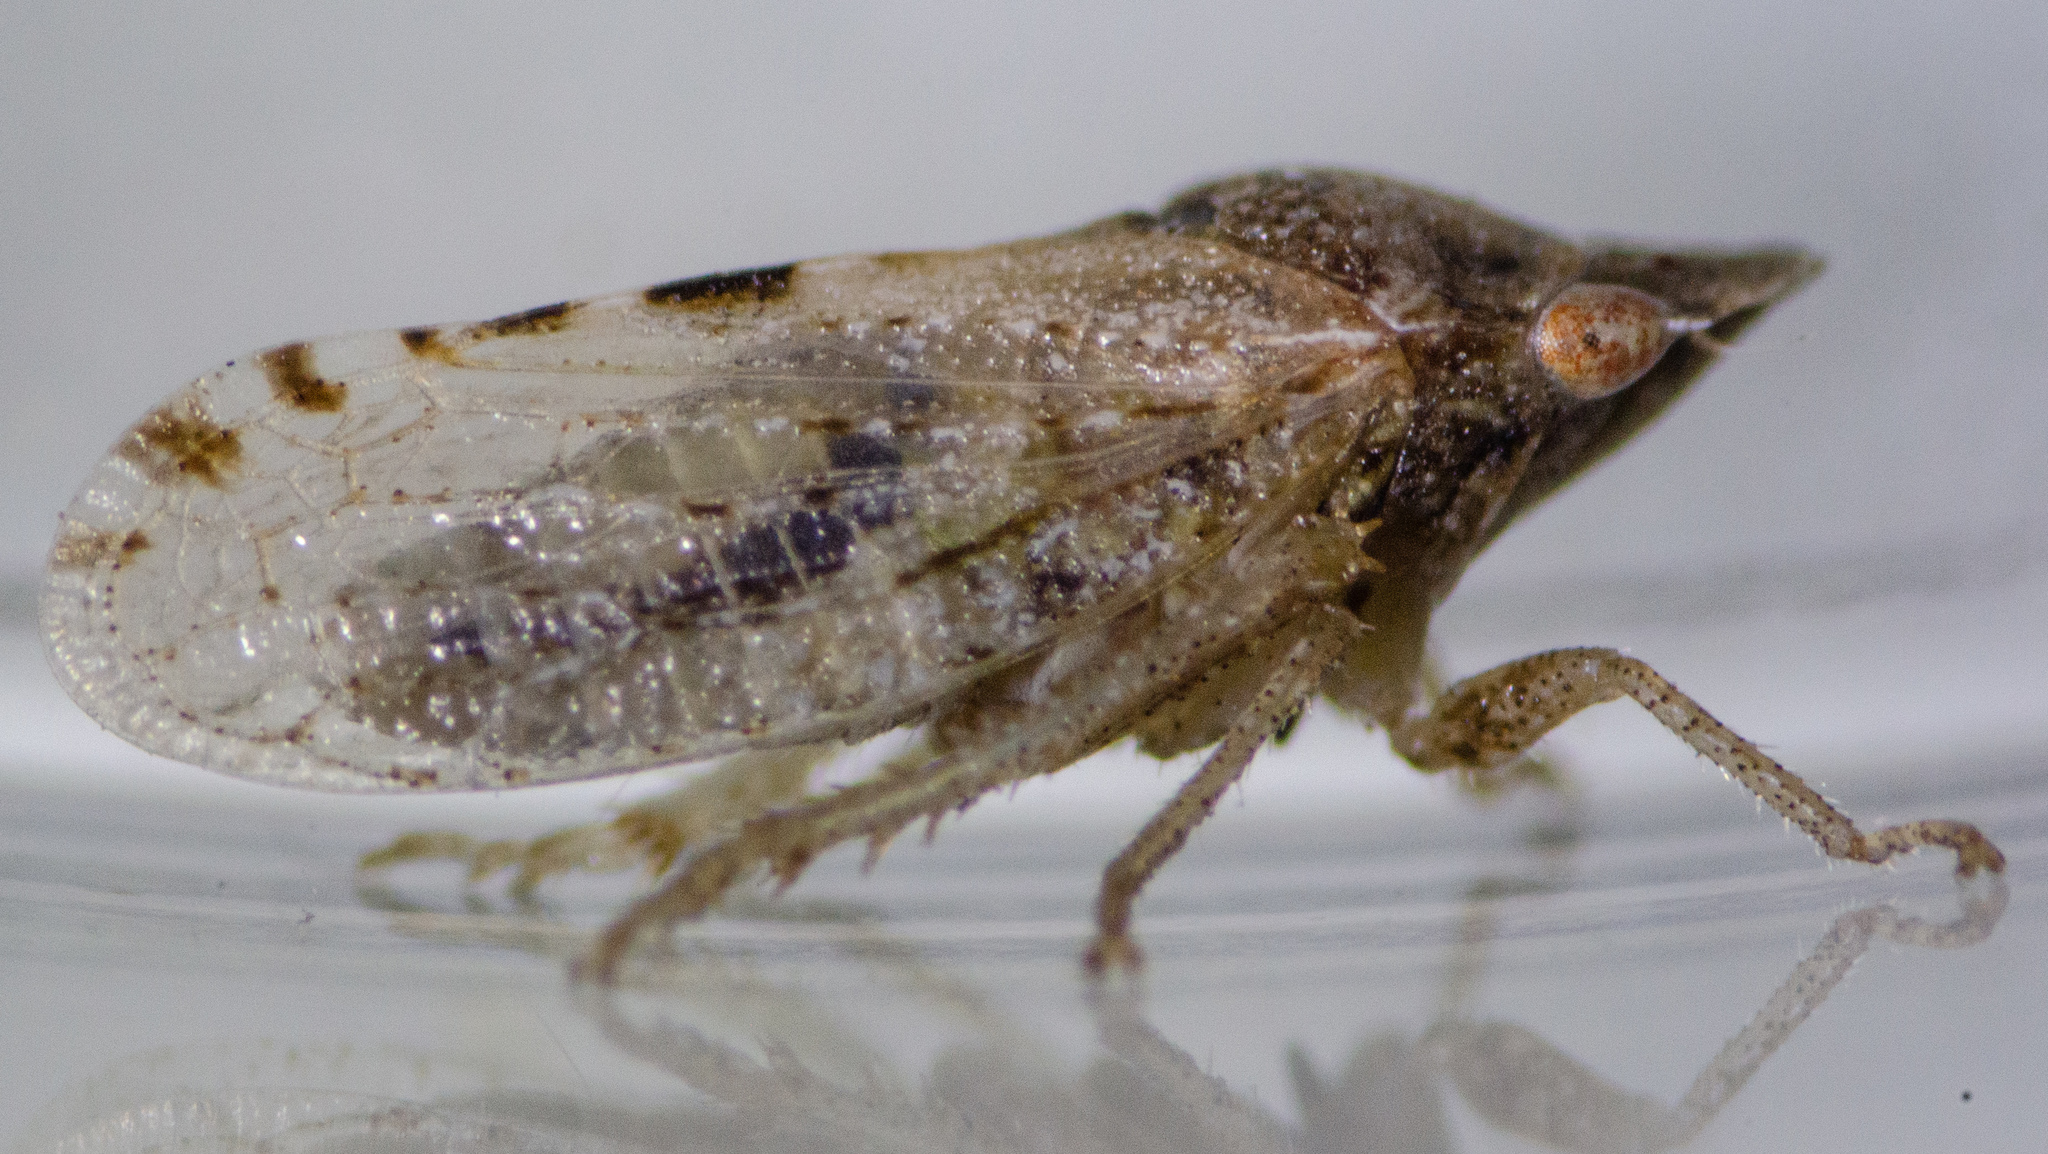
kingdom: Animalia
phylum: Arthropoda
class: Insecta
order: Hemiptera
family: Cicadellidae
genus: Xerophloea
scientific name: Xerophloea peltata
